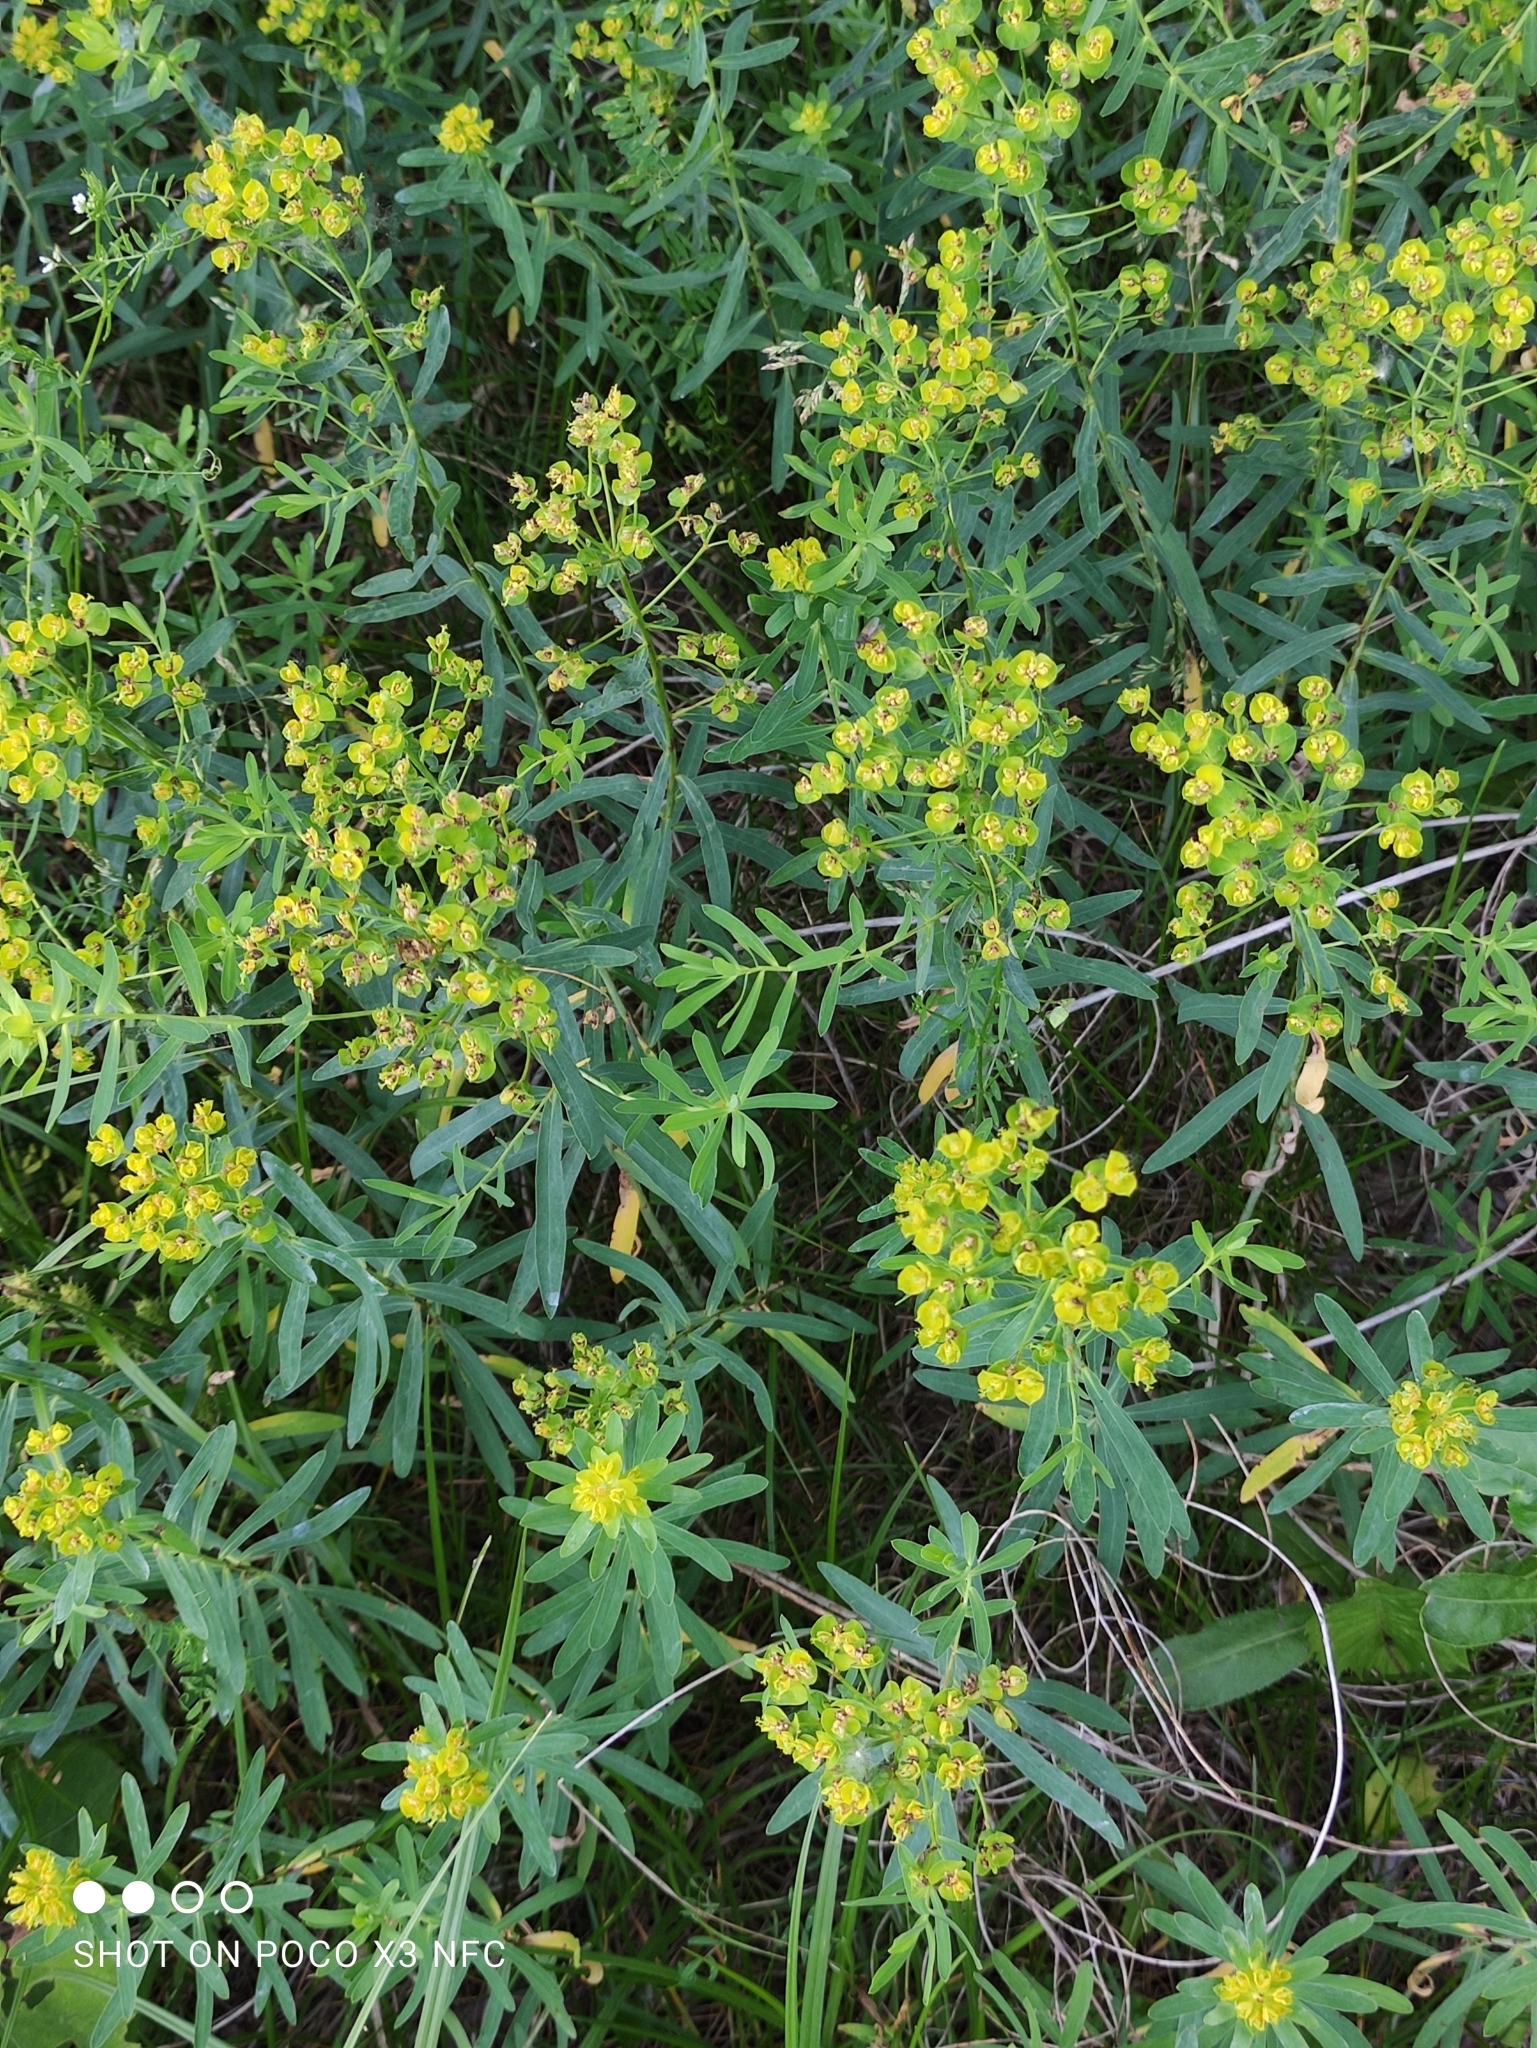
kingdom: Plantae
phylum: Tracheophyta
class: Magnoliopsida
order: Malpighiales
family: Euphorbiaceae
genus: Euphorbia
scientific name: Euphorbia virgata
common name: Leafy spurge
